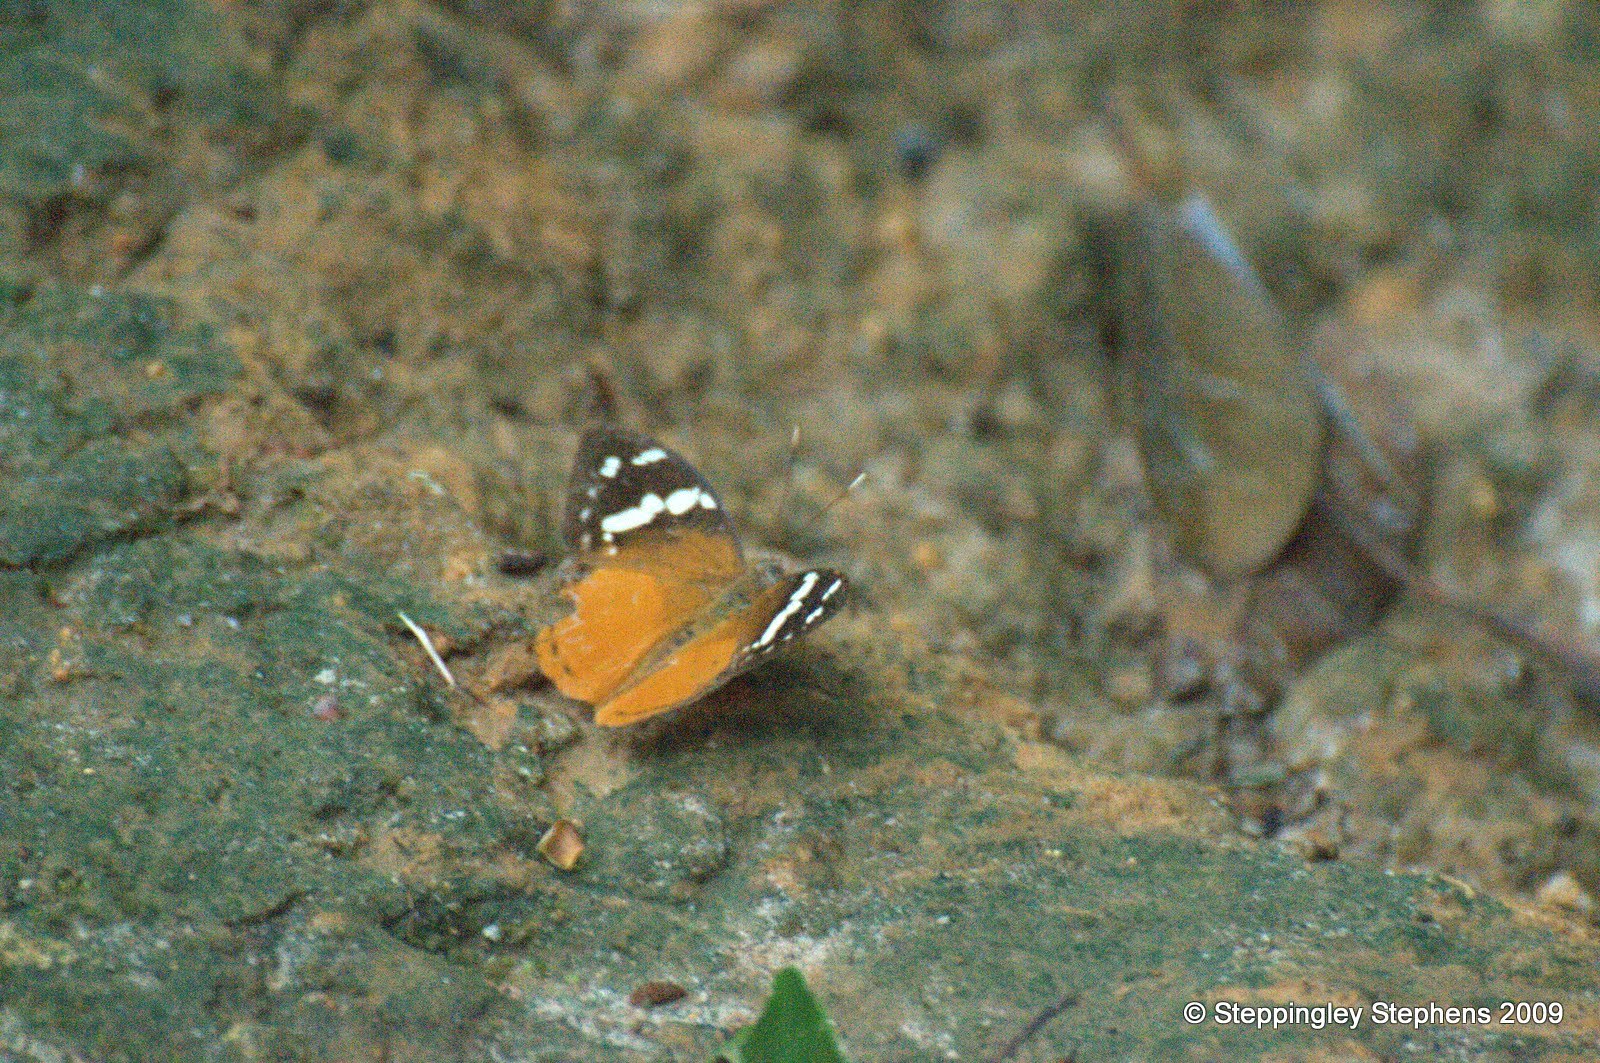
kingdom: Animalia
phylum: Arthropoda
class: Insecta
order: Lepidoptera
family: Nymphalidae
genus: Aterica
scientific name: Aterica rabena
